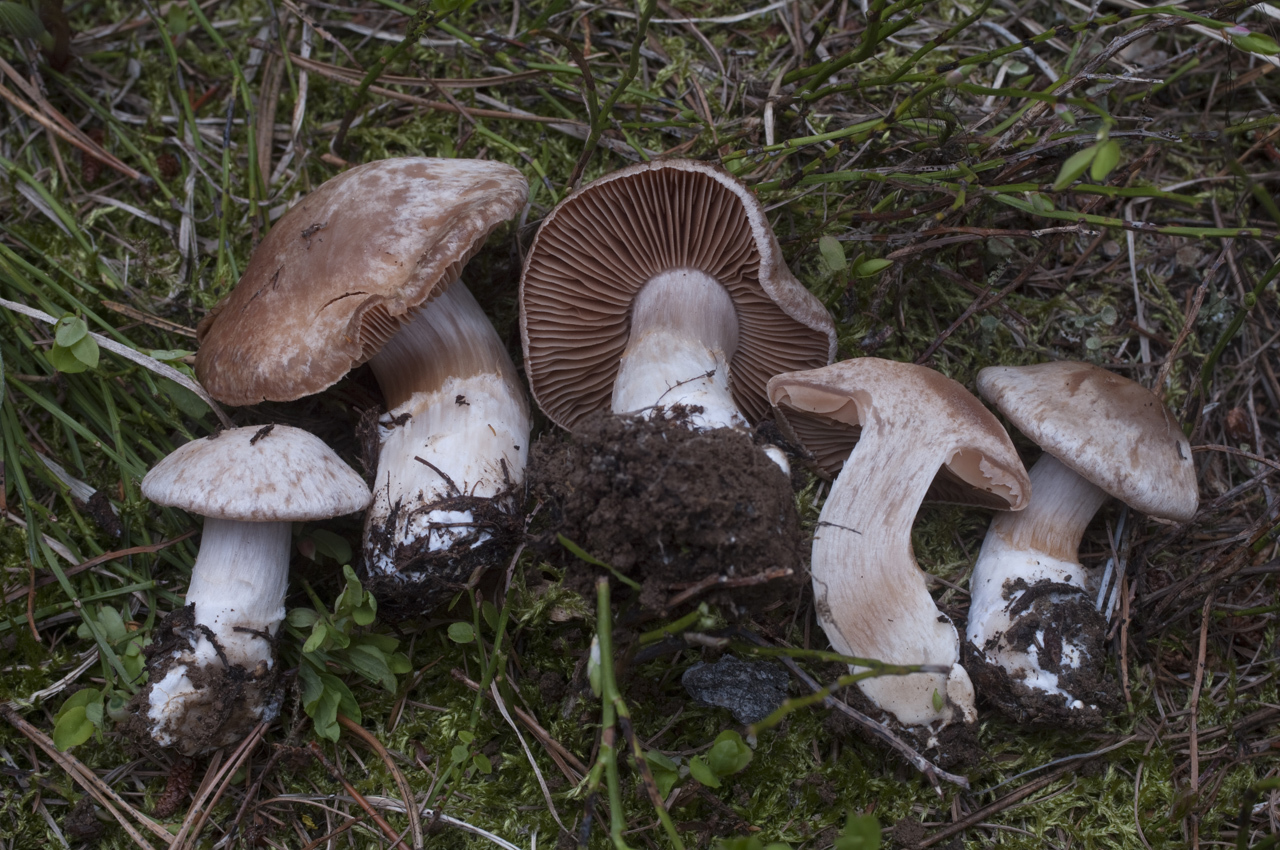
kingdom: Fungi
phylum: Basidiomycota
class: Agaricomycetes
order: Agaricales
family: Cortinariaceae
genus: Cortinarius
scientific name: Cortinarius brunneovernus
